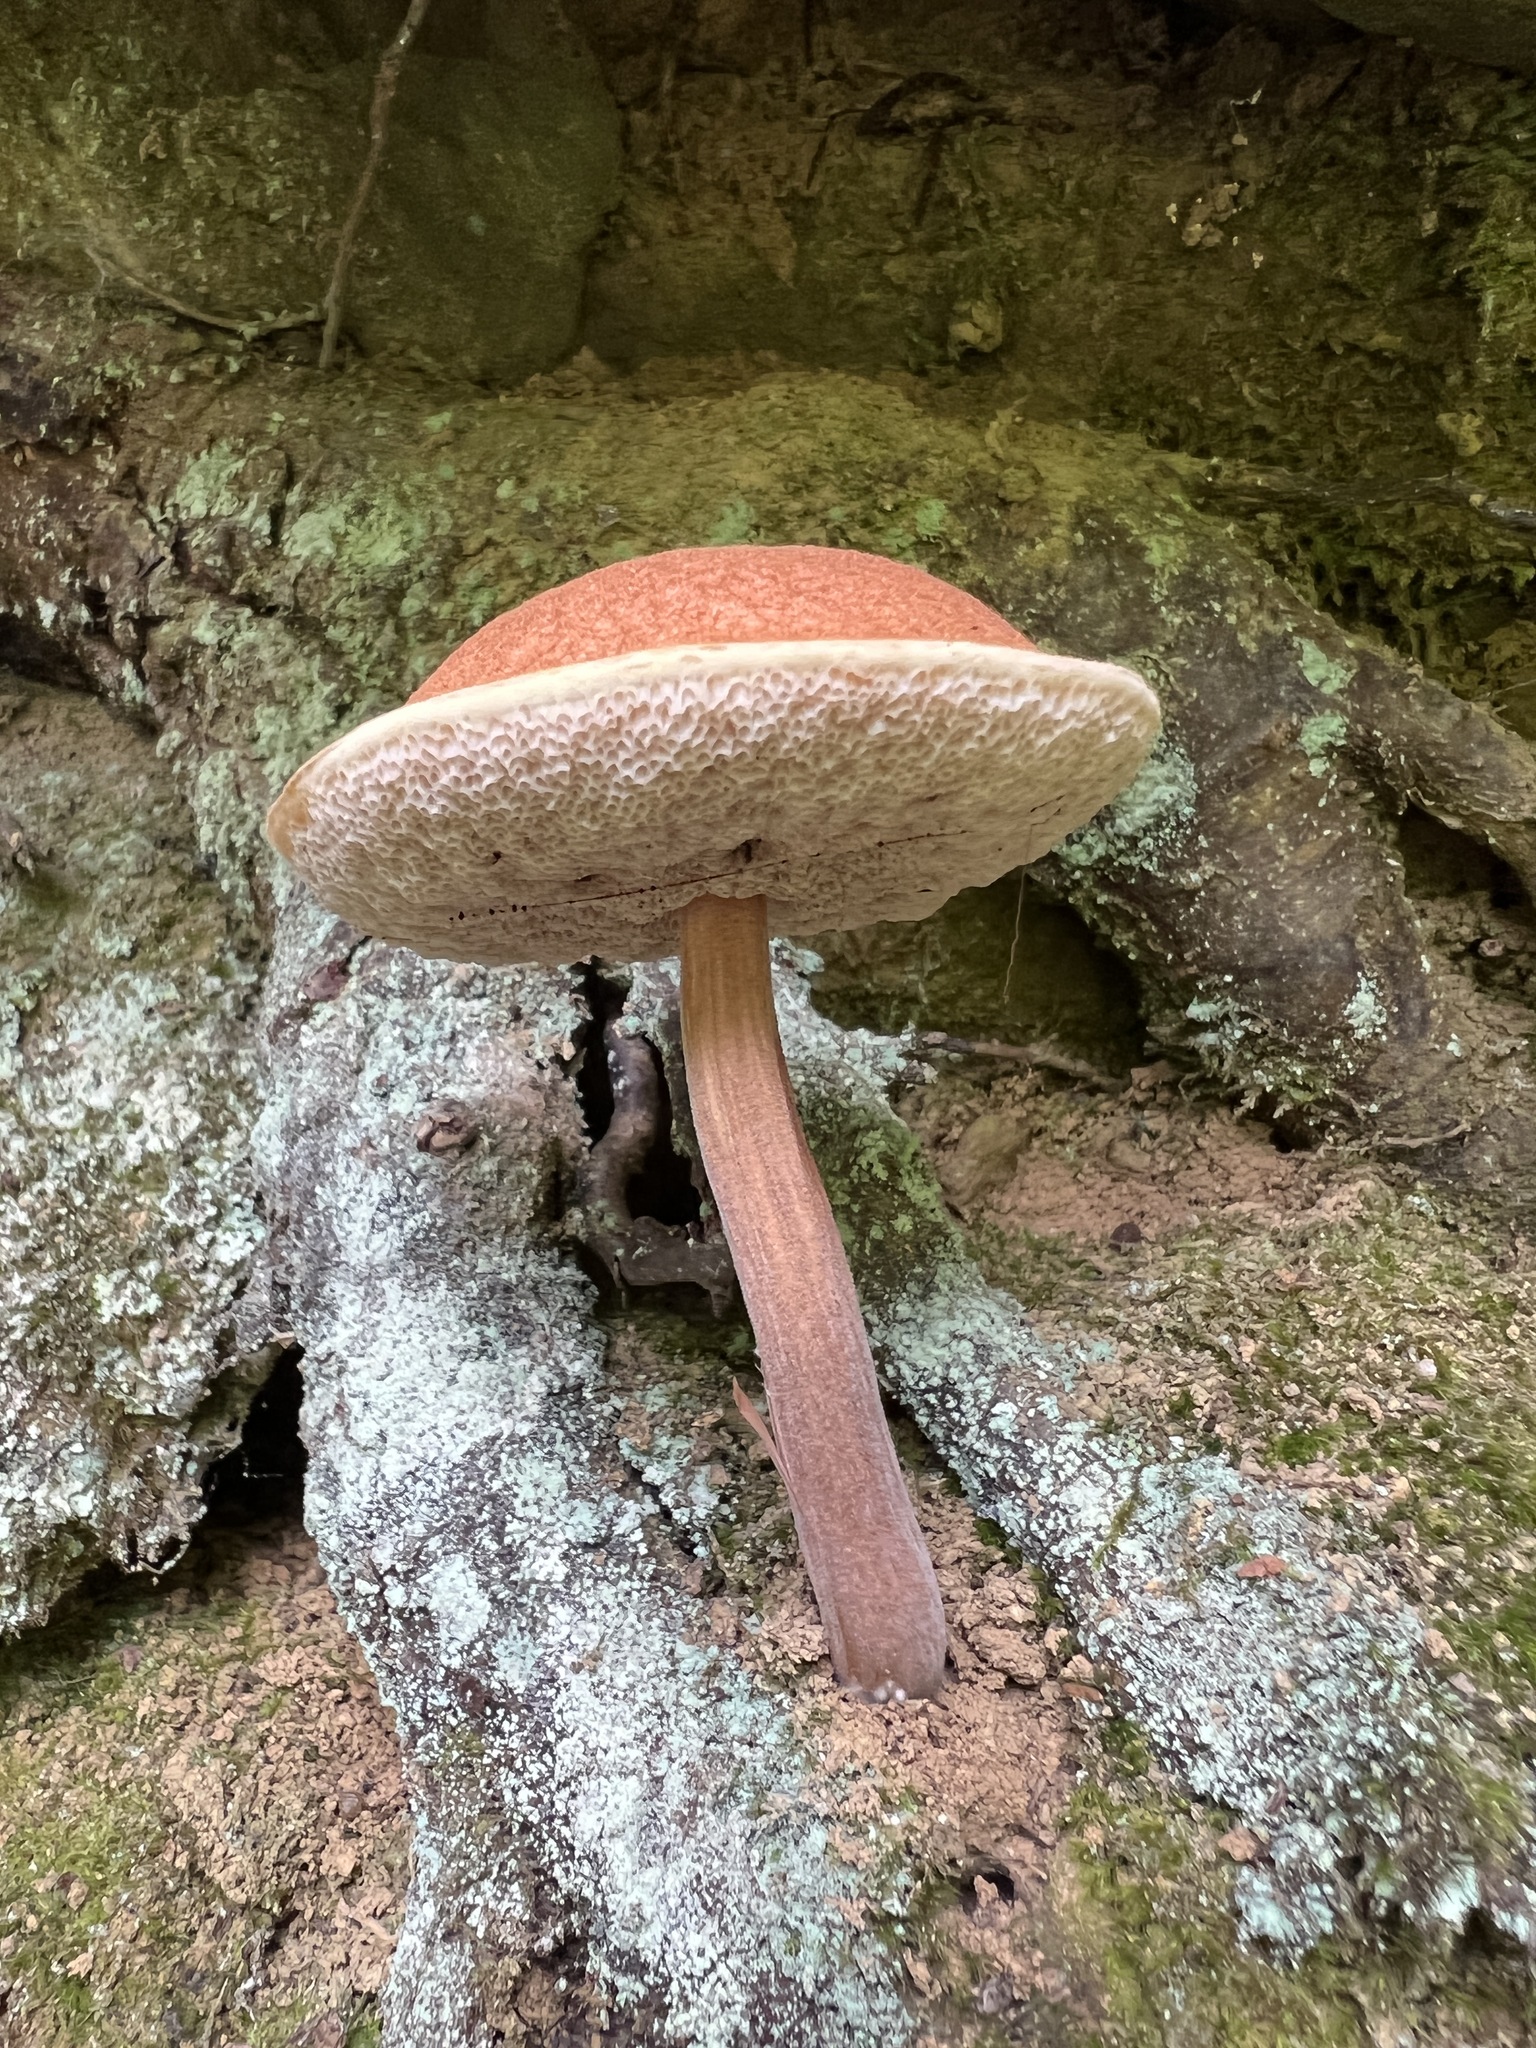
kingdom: Fungi
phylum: Basidiomycota
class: Agaricomycetes
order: Boletales
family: Boletaceae
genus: Austroboletus
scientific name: Austroboletus gracilis
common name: Graceful bolete
